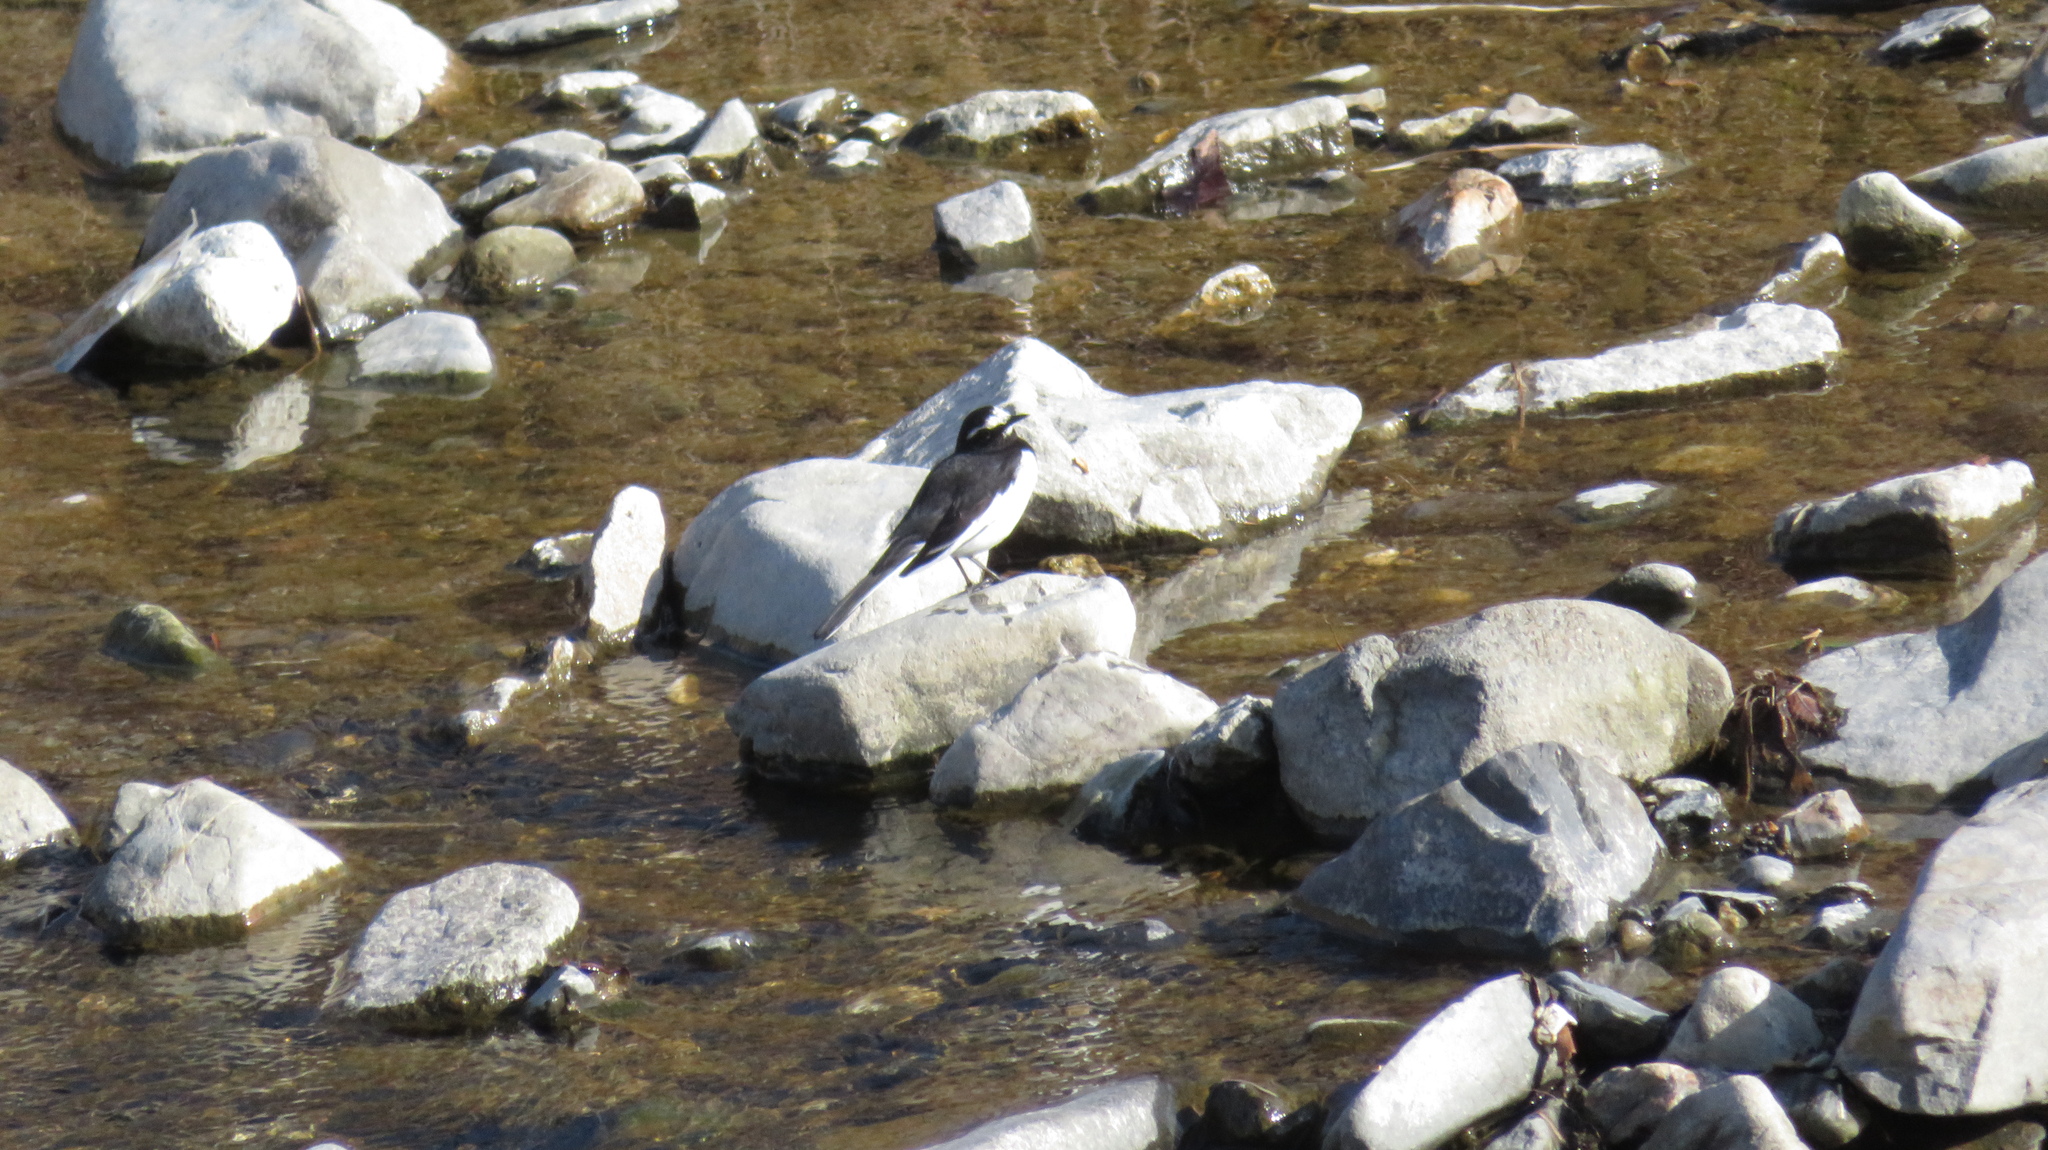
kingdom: Animalia
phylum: Chordata
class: Aves
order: Passeriformes
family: Motacillidae
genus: Motacilla
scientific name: Motacilla grandis
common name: Japanese wagtail
